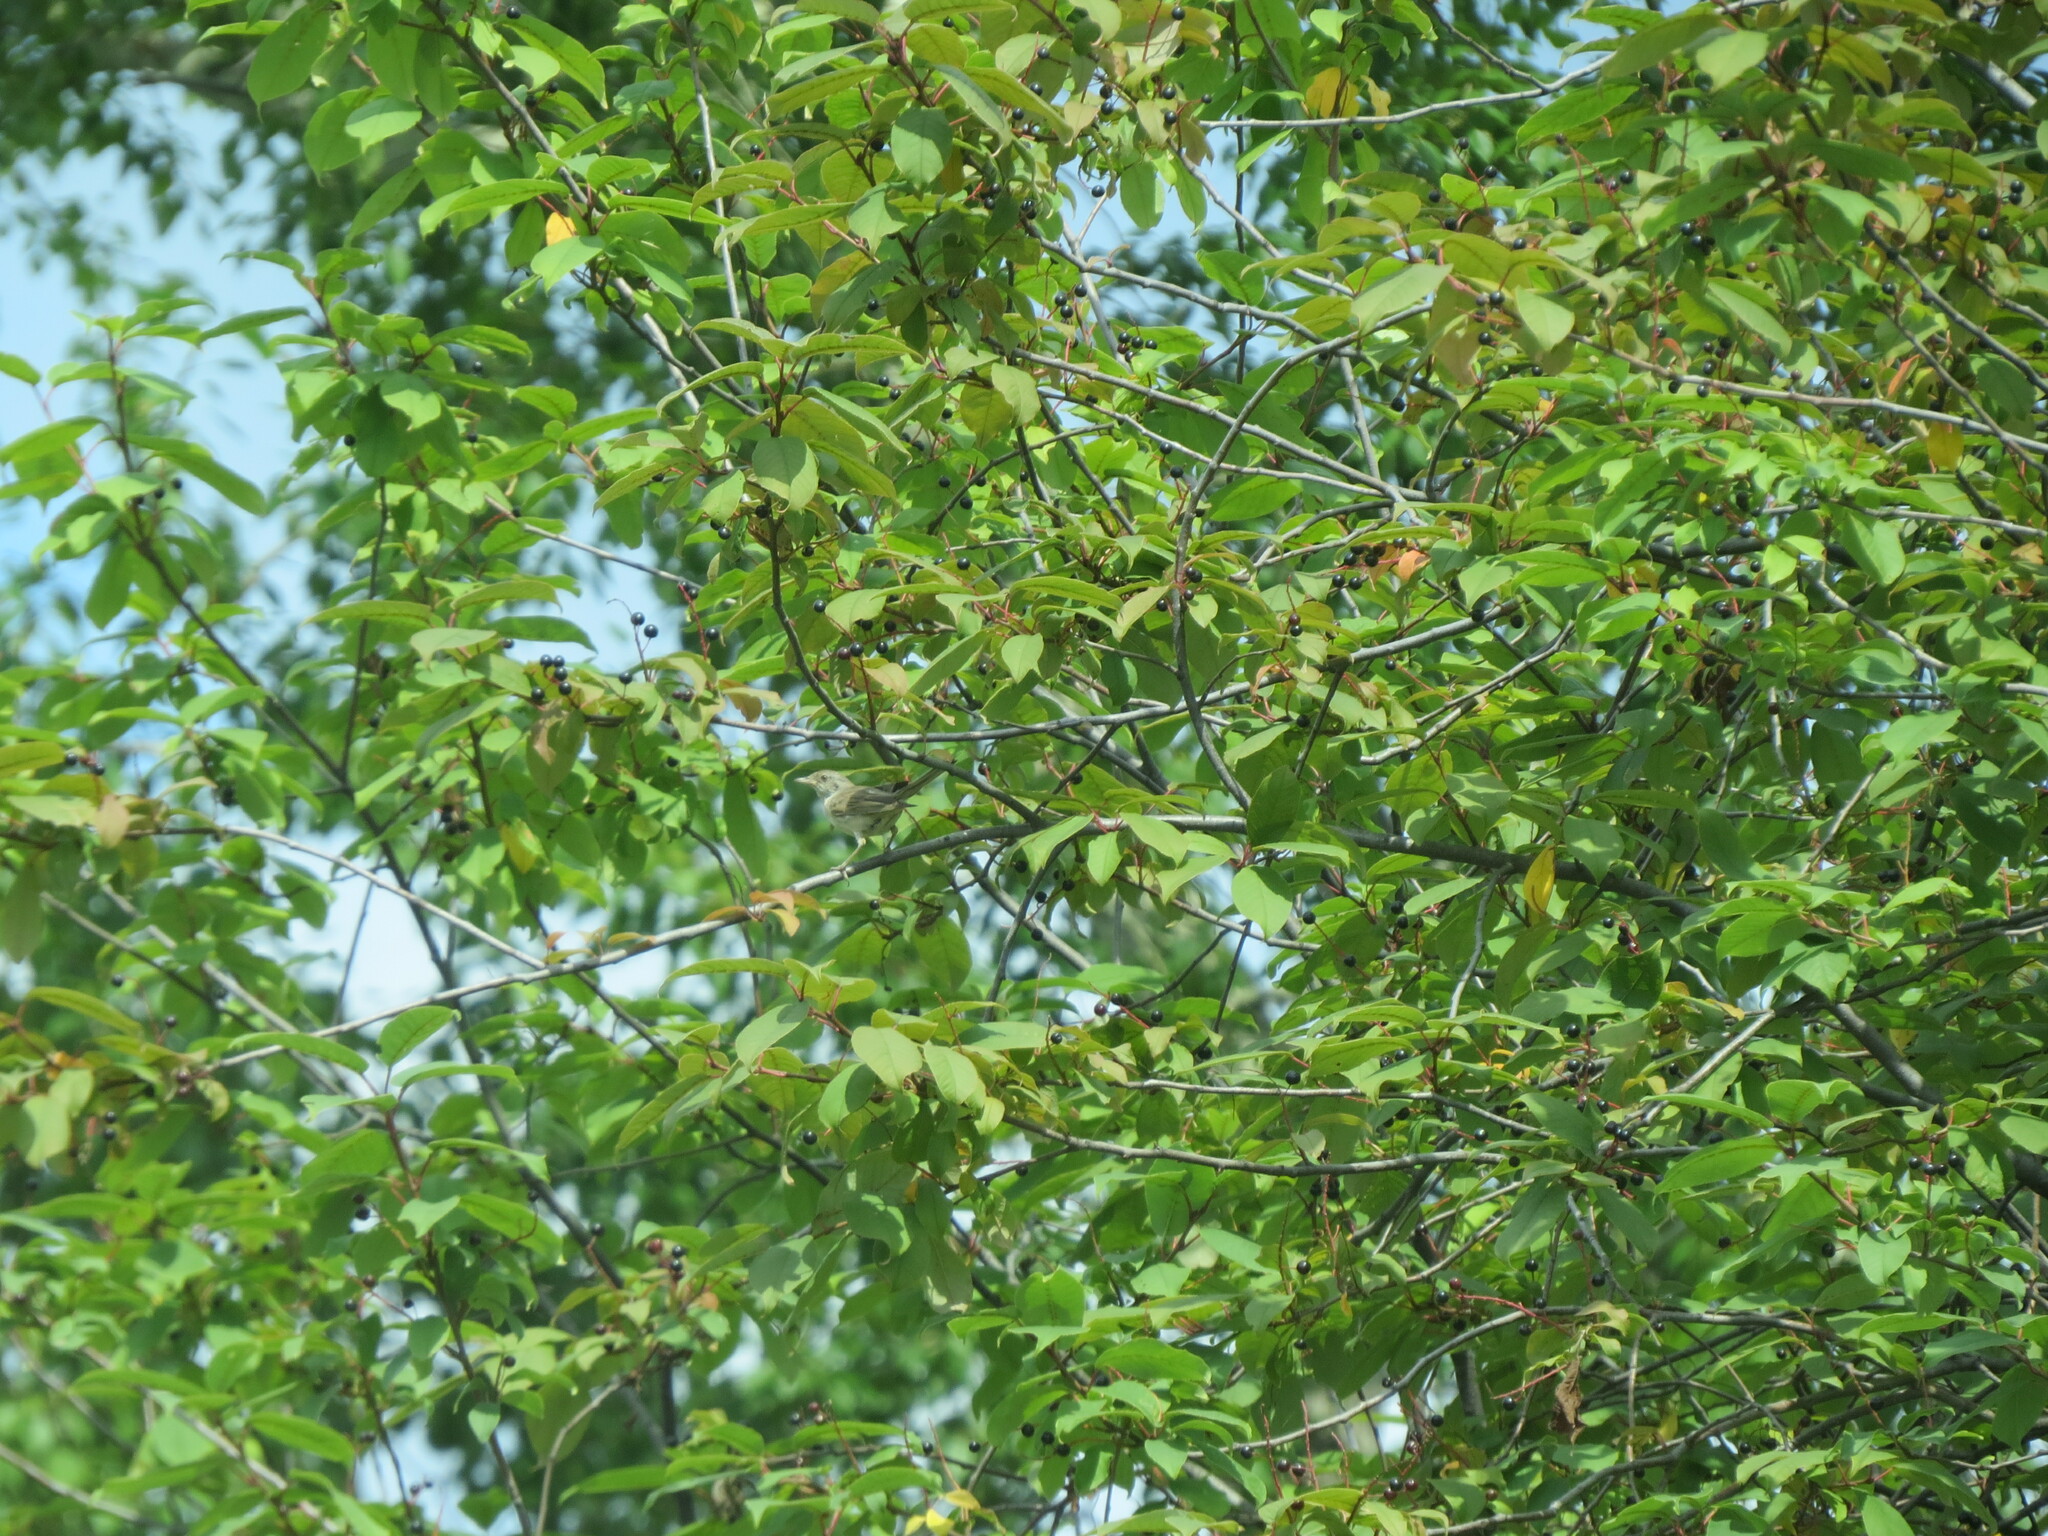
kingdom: Animalia
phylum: Chordata
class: Aves
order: Passeriformes
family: Sylviidae
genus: Sylvia
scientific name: Sylvia communis
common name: Common whitethroat
